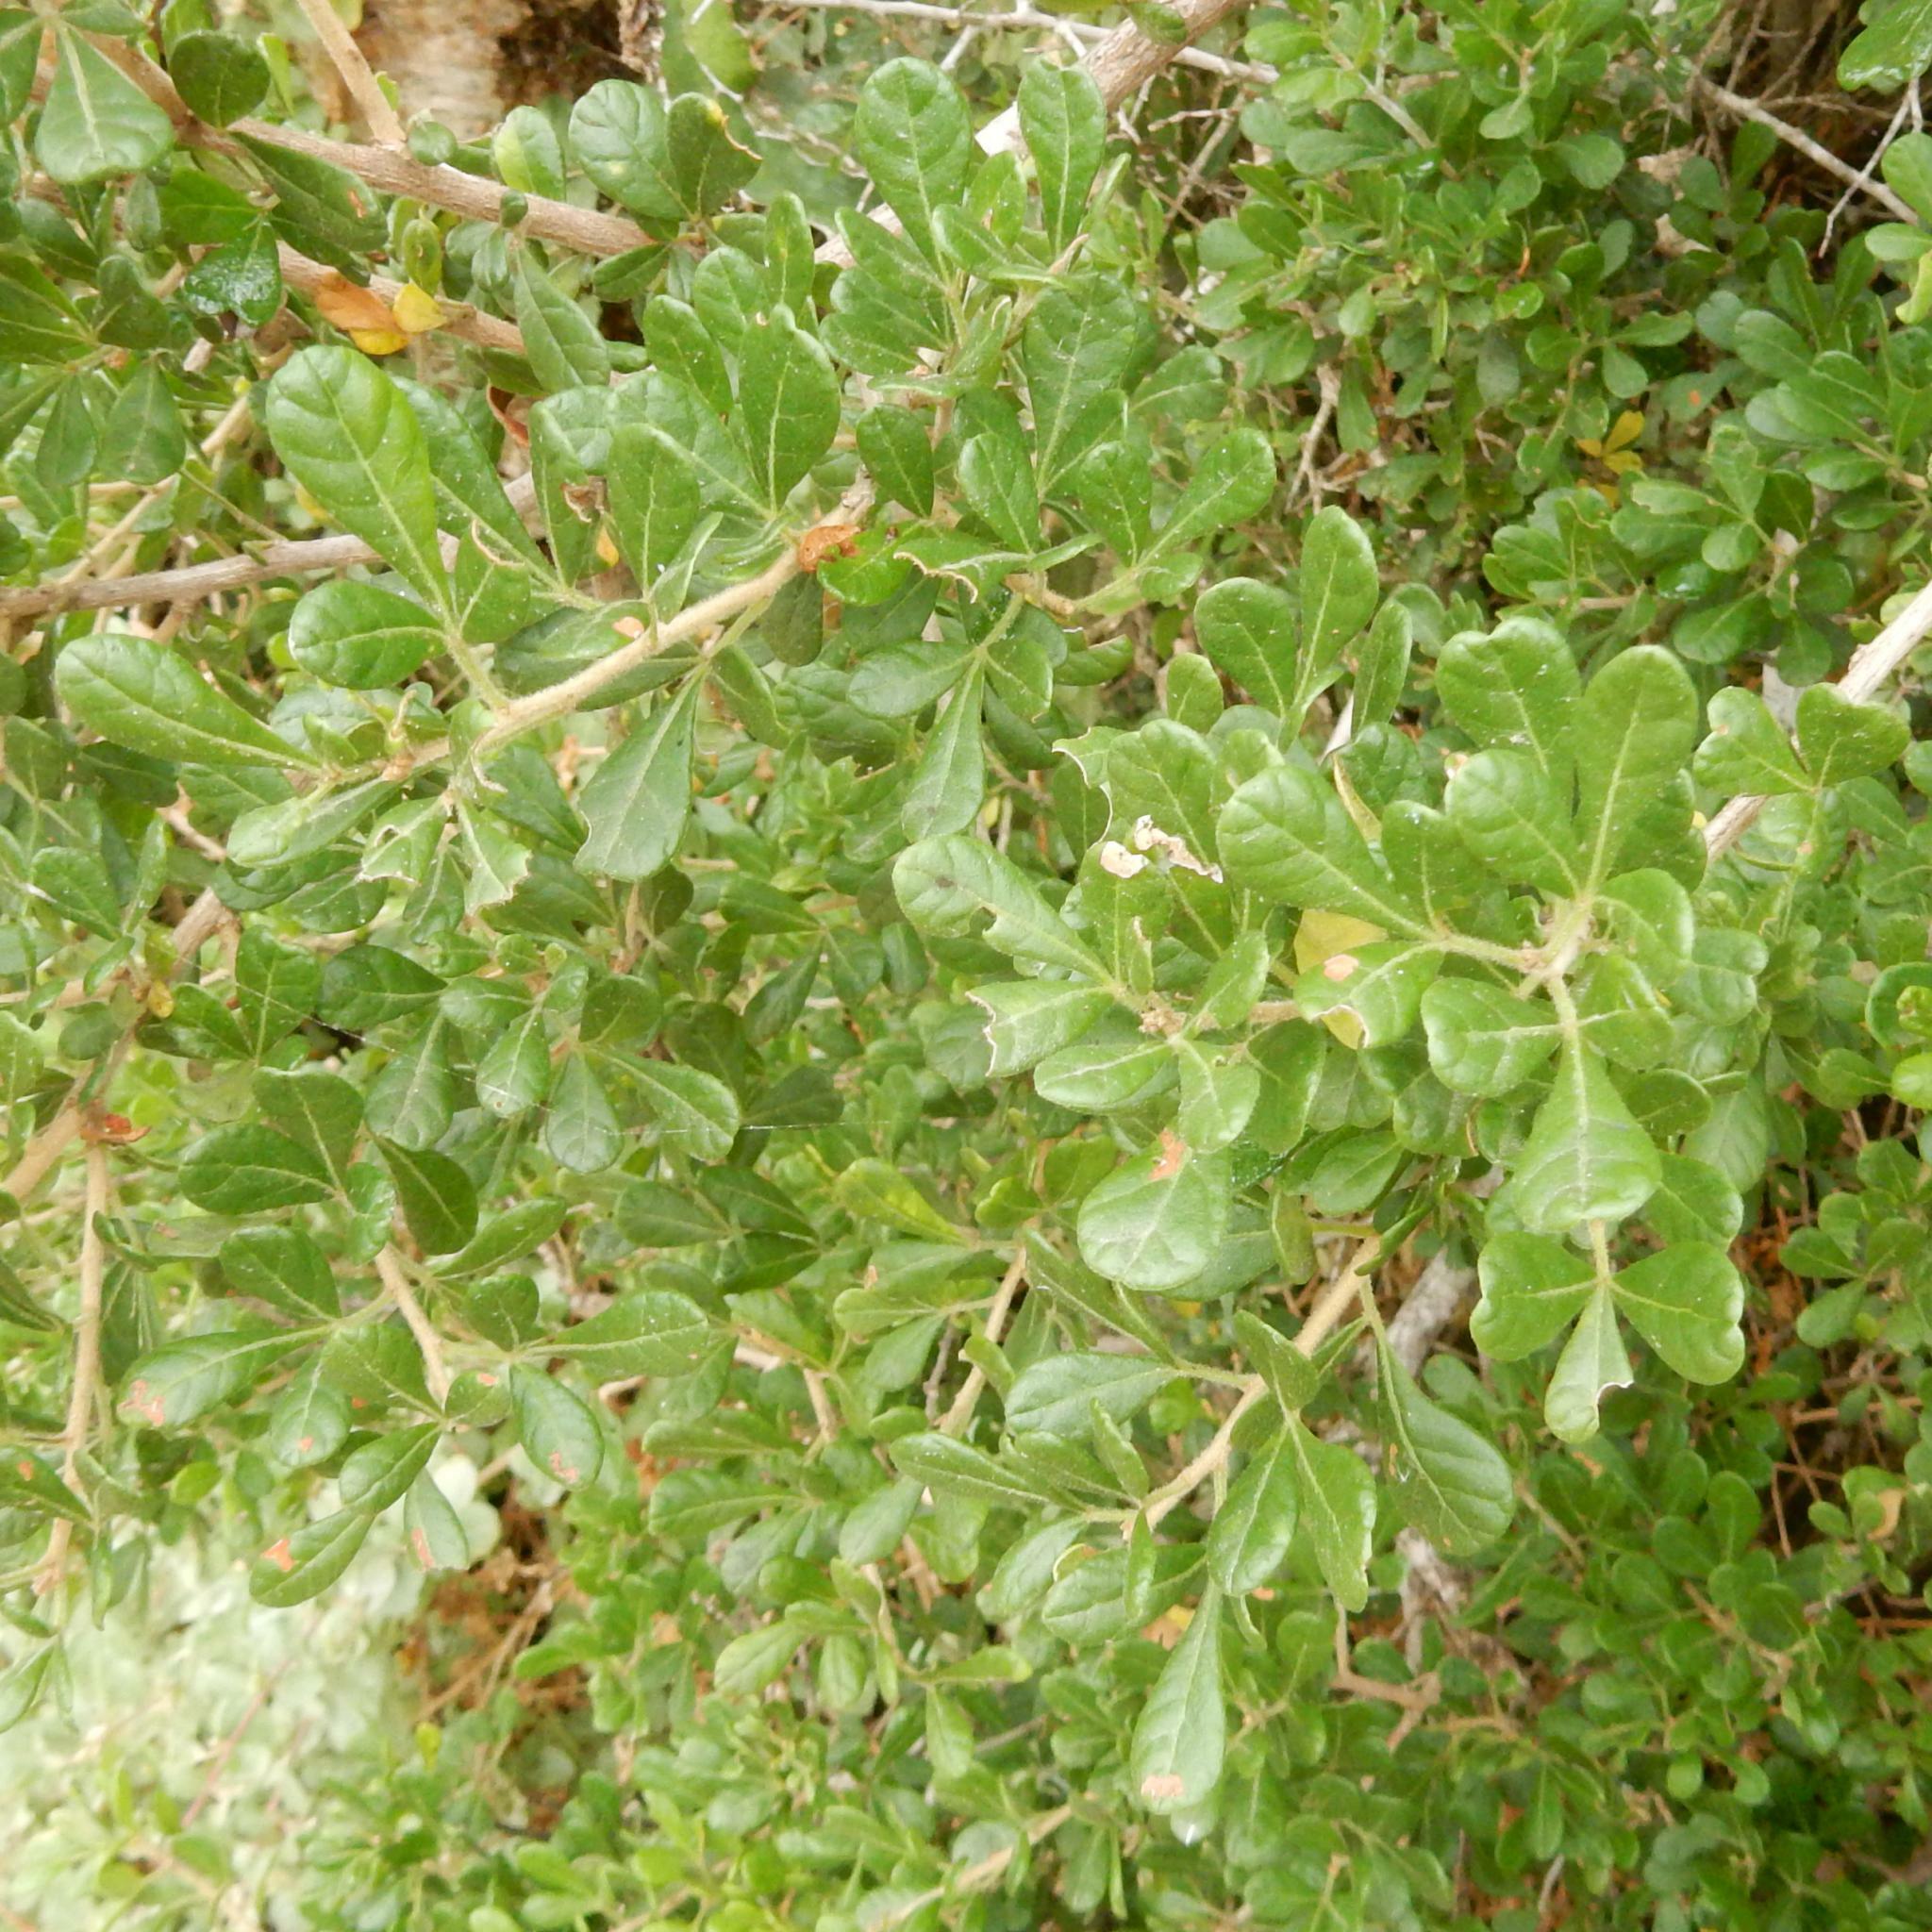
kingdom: Plantae
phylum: Tracheophyta
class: Magnoliopsida
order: Sapindales
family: Anacardiaceae
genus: Searsia
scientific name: Searsia refracta
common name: Thorny crow-berry
